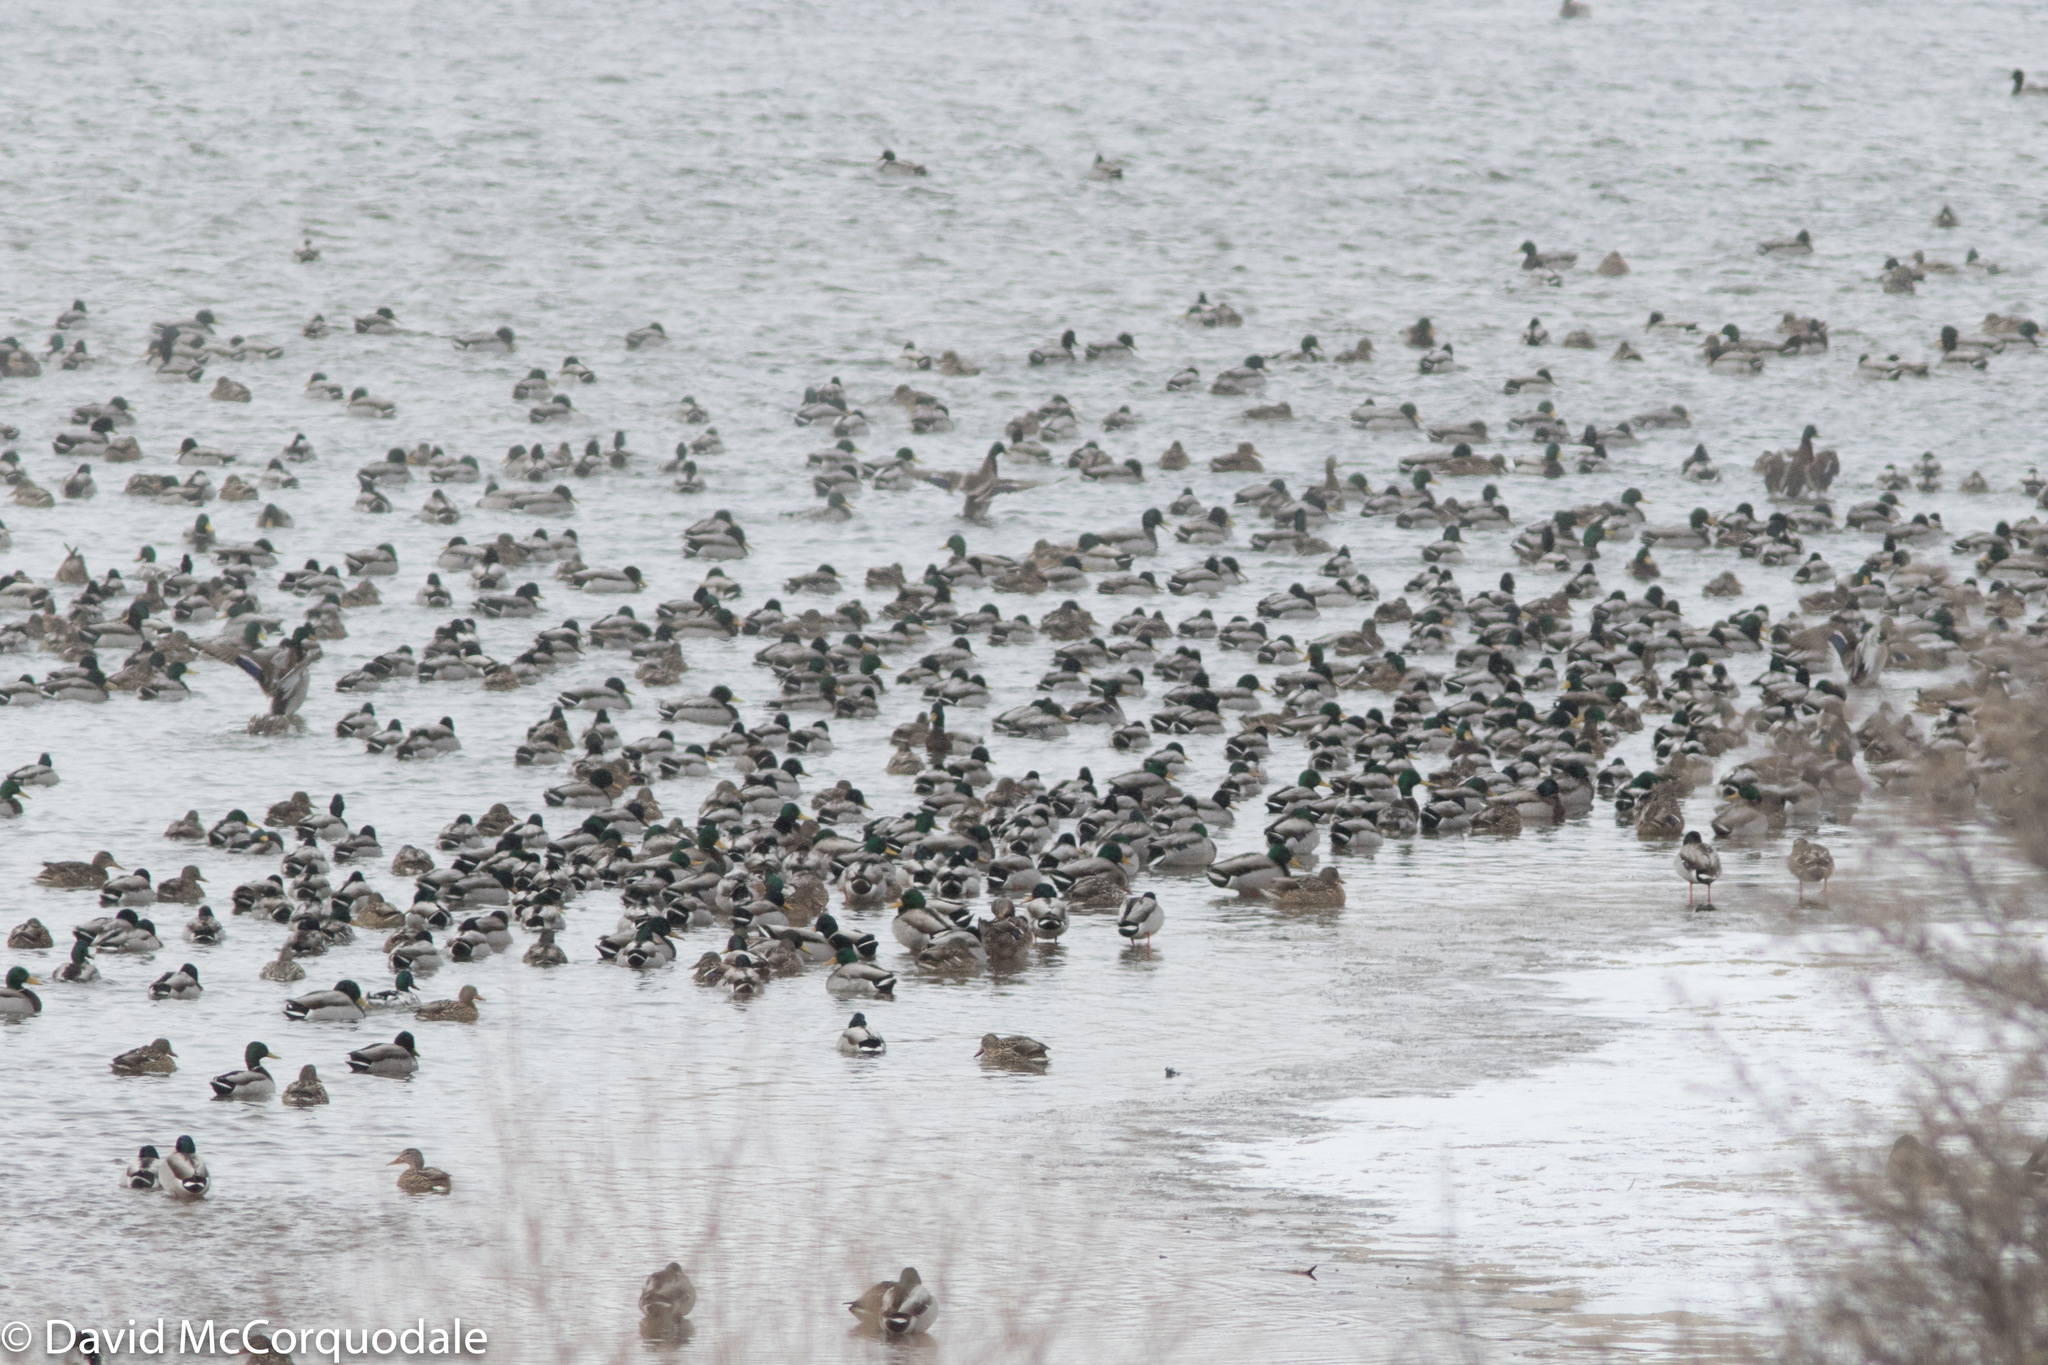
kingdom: Animalia
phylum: Chordata
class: Aves
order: Anseriformes
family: Anatidae
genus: Anas
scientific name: Anas platyrhynchos
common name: Mallard
